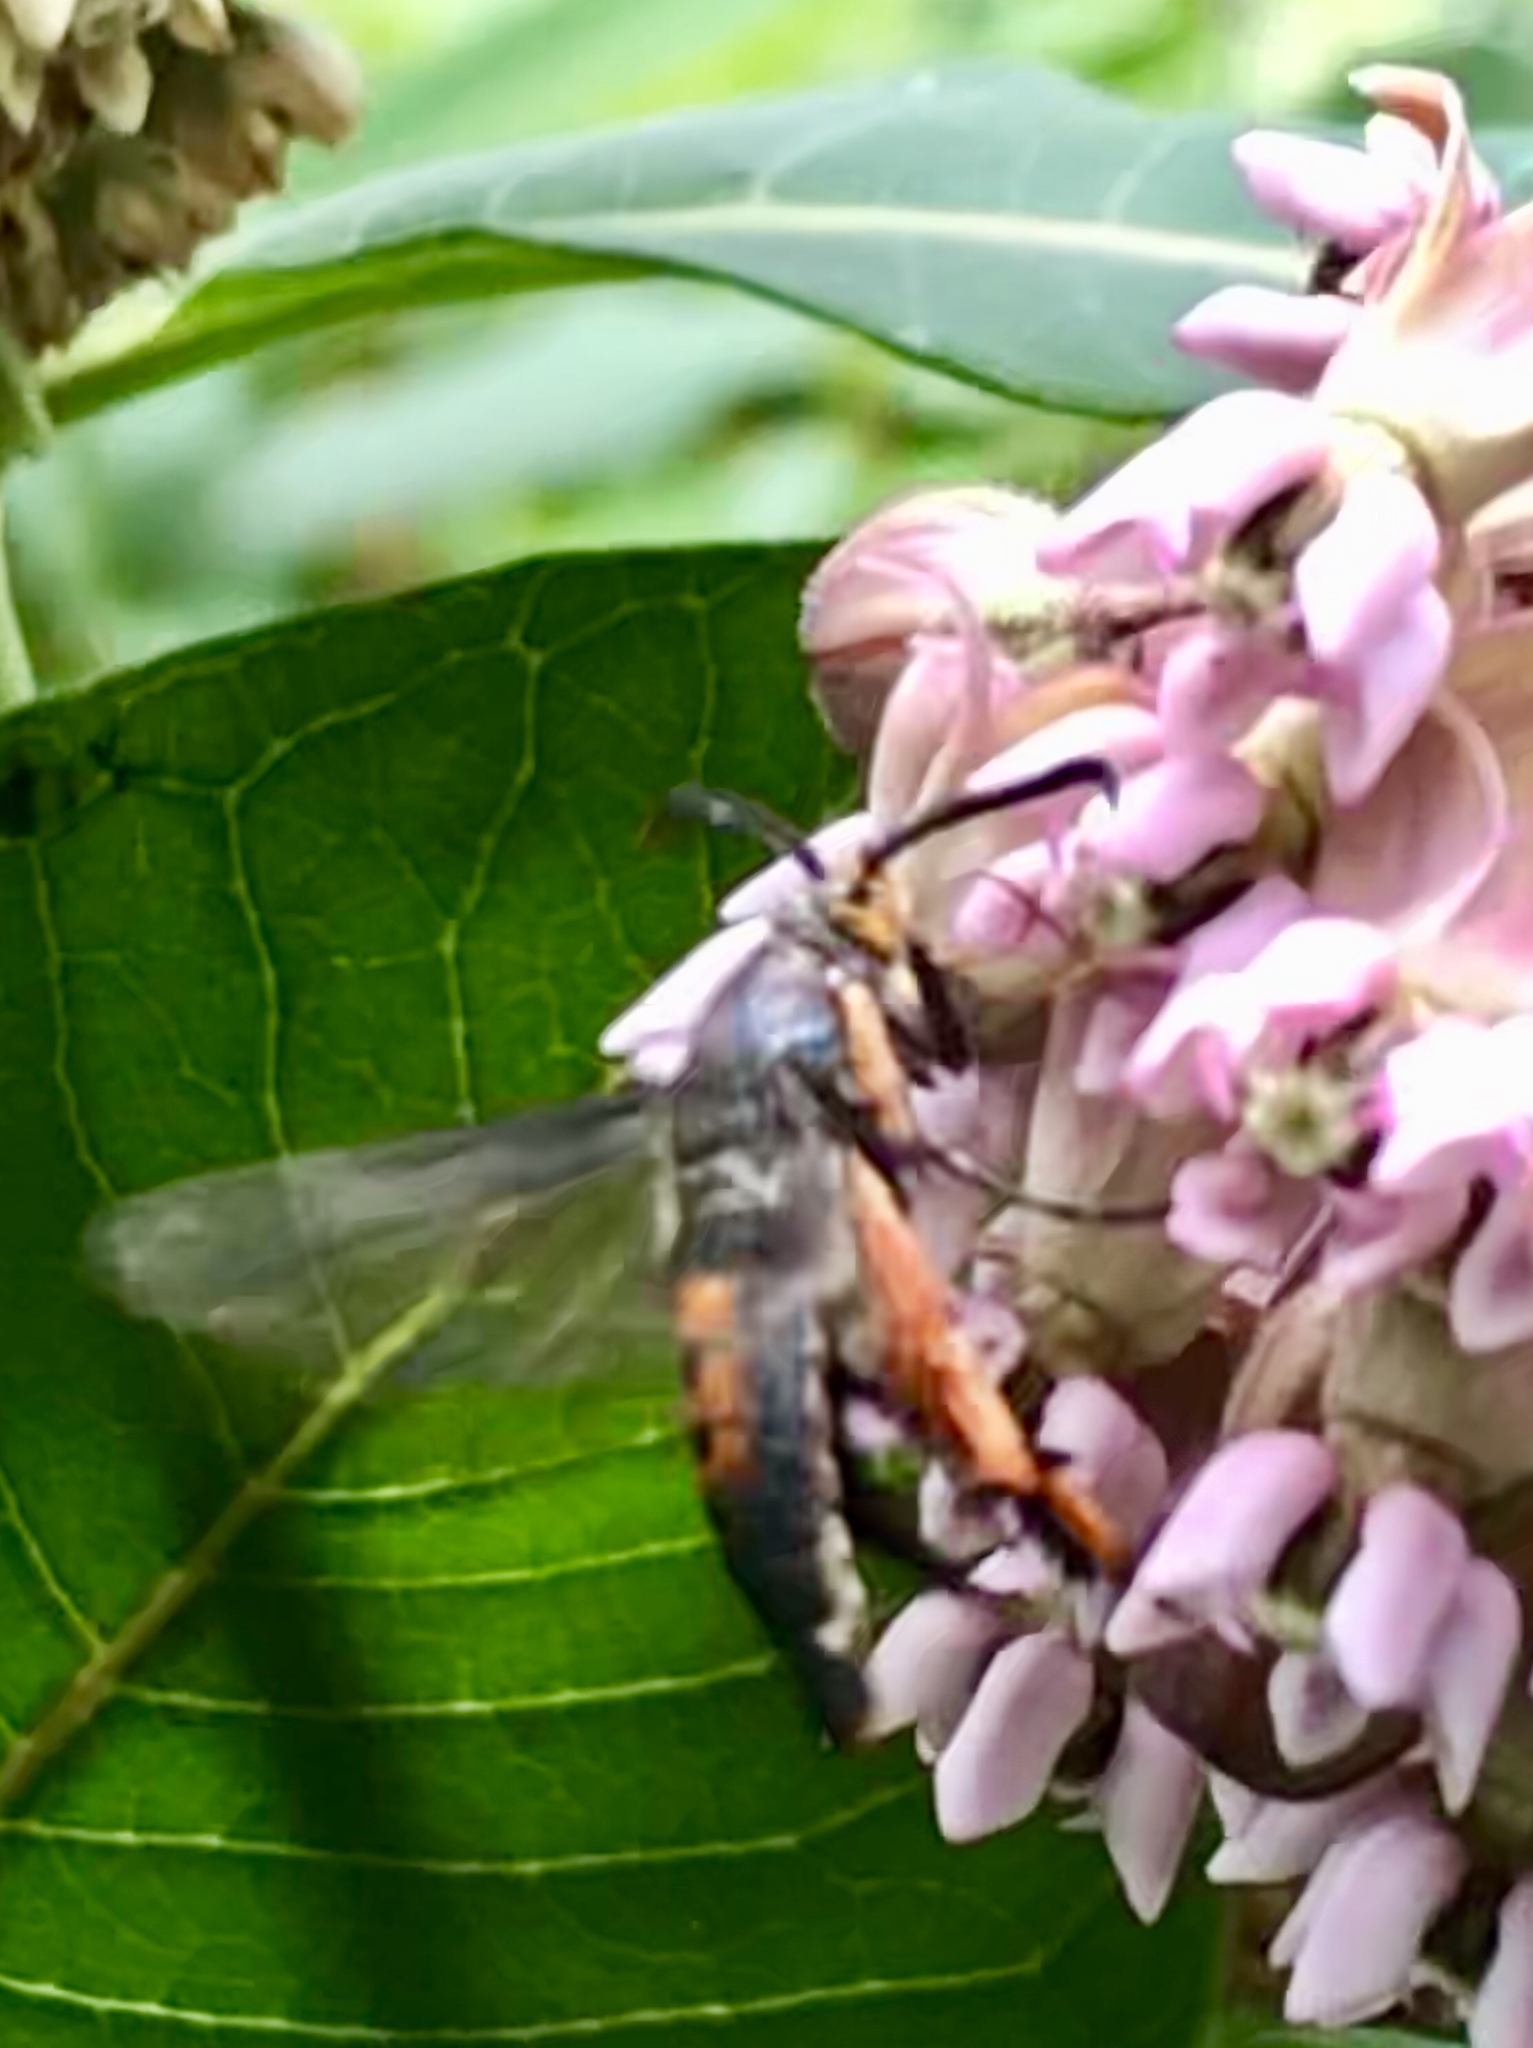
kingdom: Animalia
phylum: Arthropoda
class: Insecta
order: Lepidoptera
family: Sesiidae
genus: Eichlinia
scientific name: Eichlinia cucurbitae
